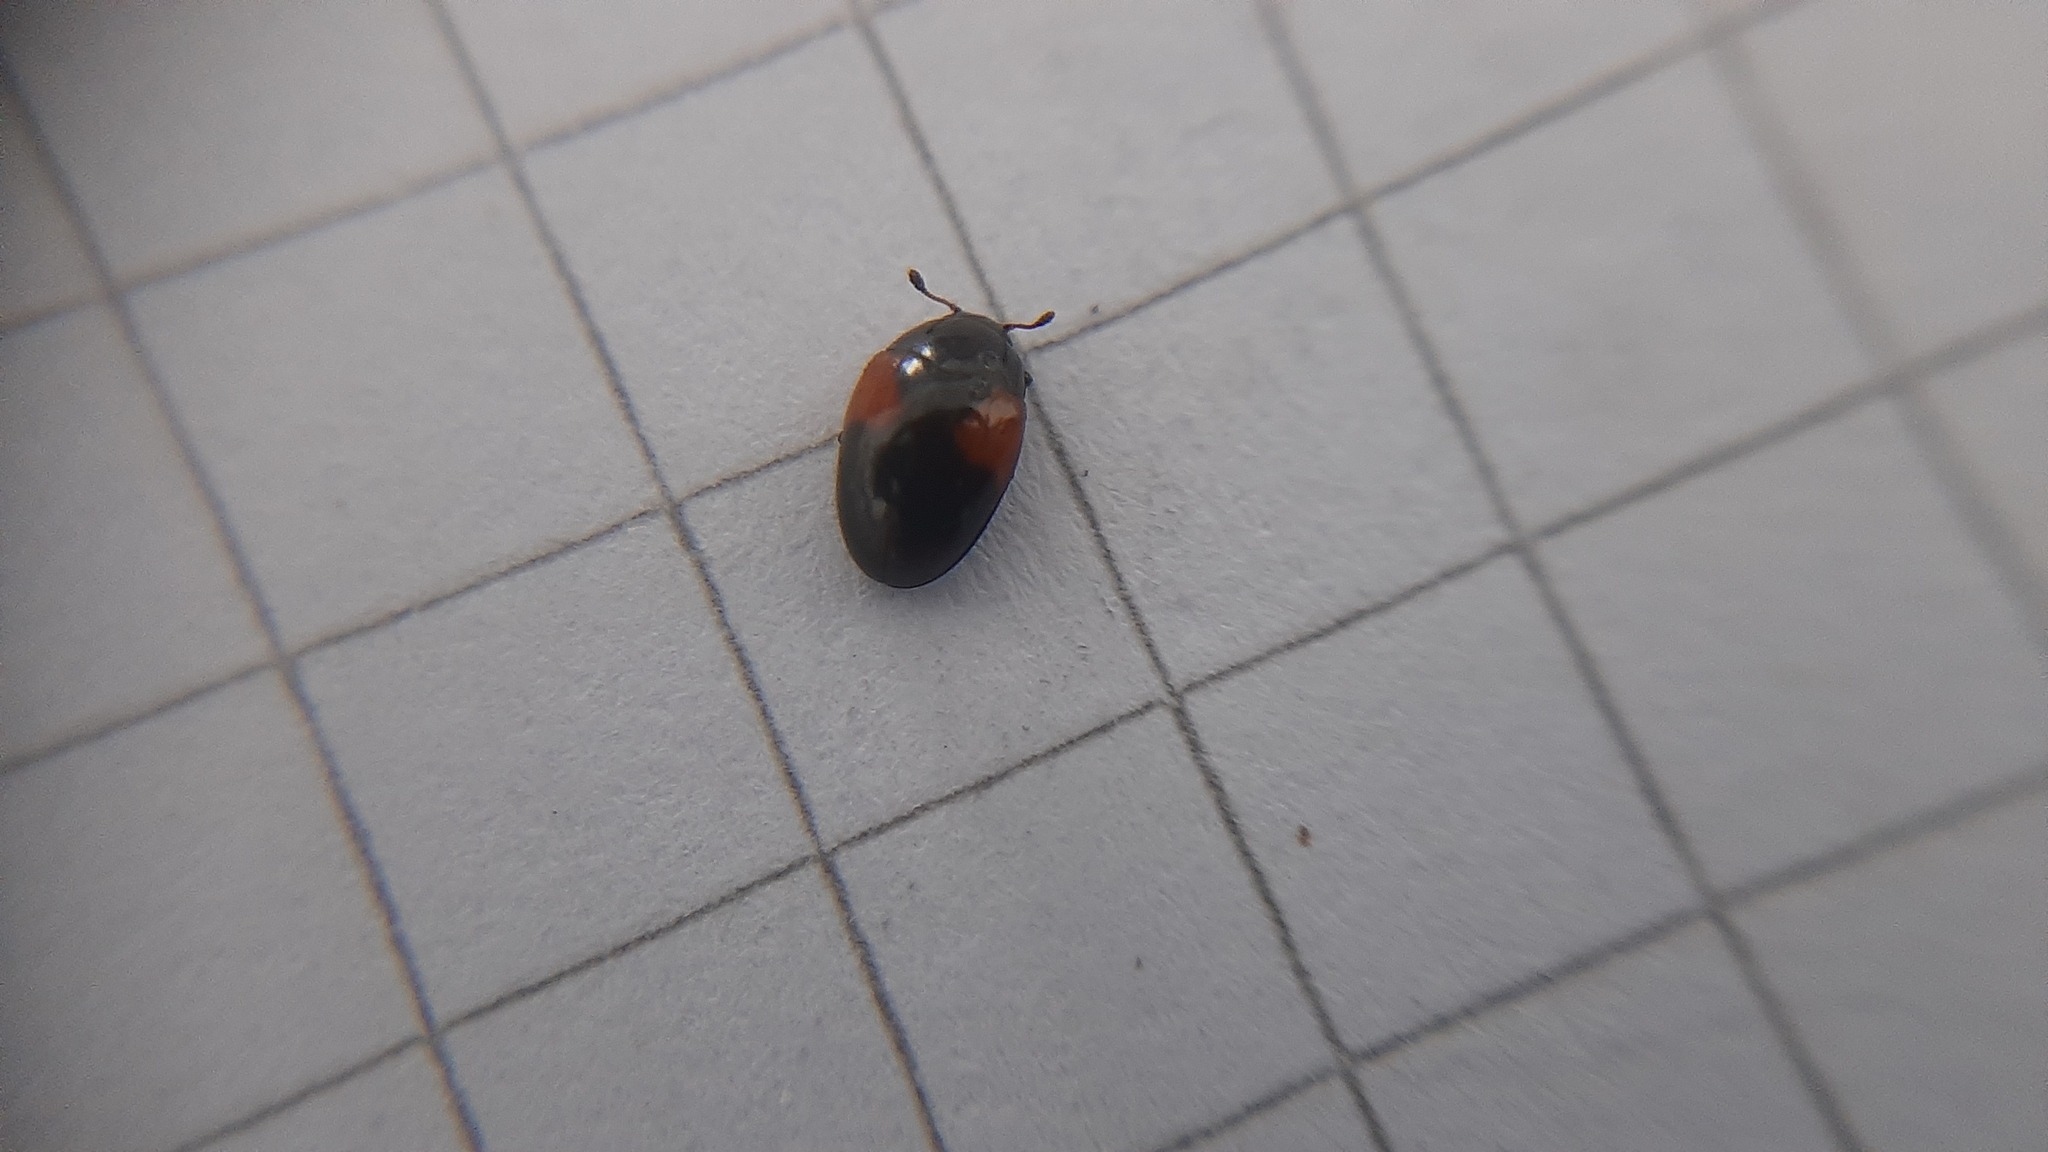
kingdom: Animalia
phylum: Arthropoda
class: Insecta
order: Coleoptera
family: Erotylidae
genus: Tritoma
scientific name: Tritoma bipustulata
